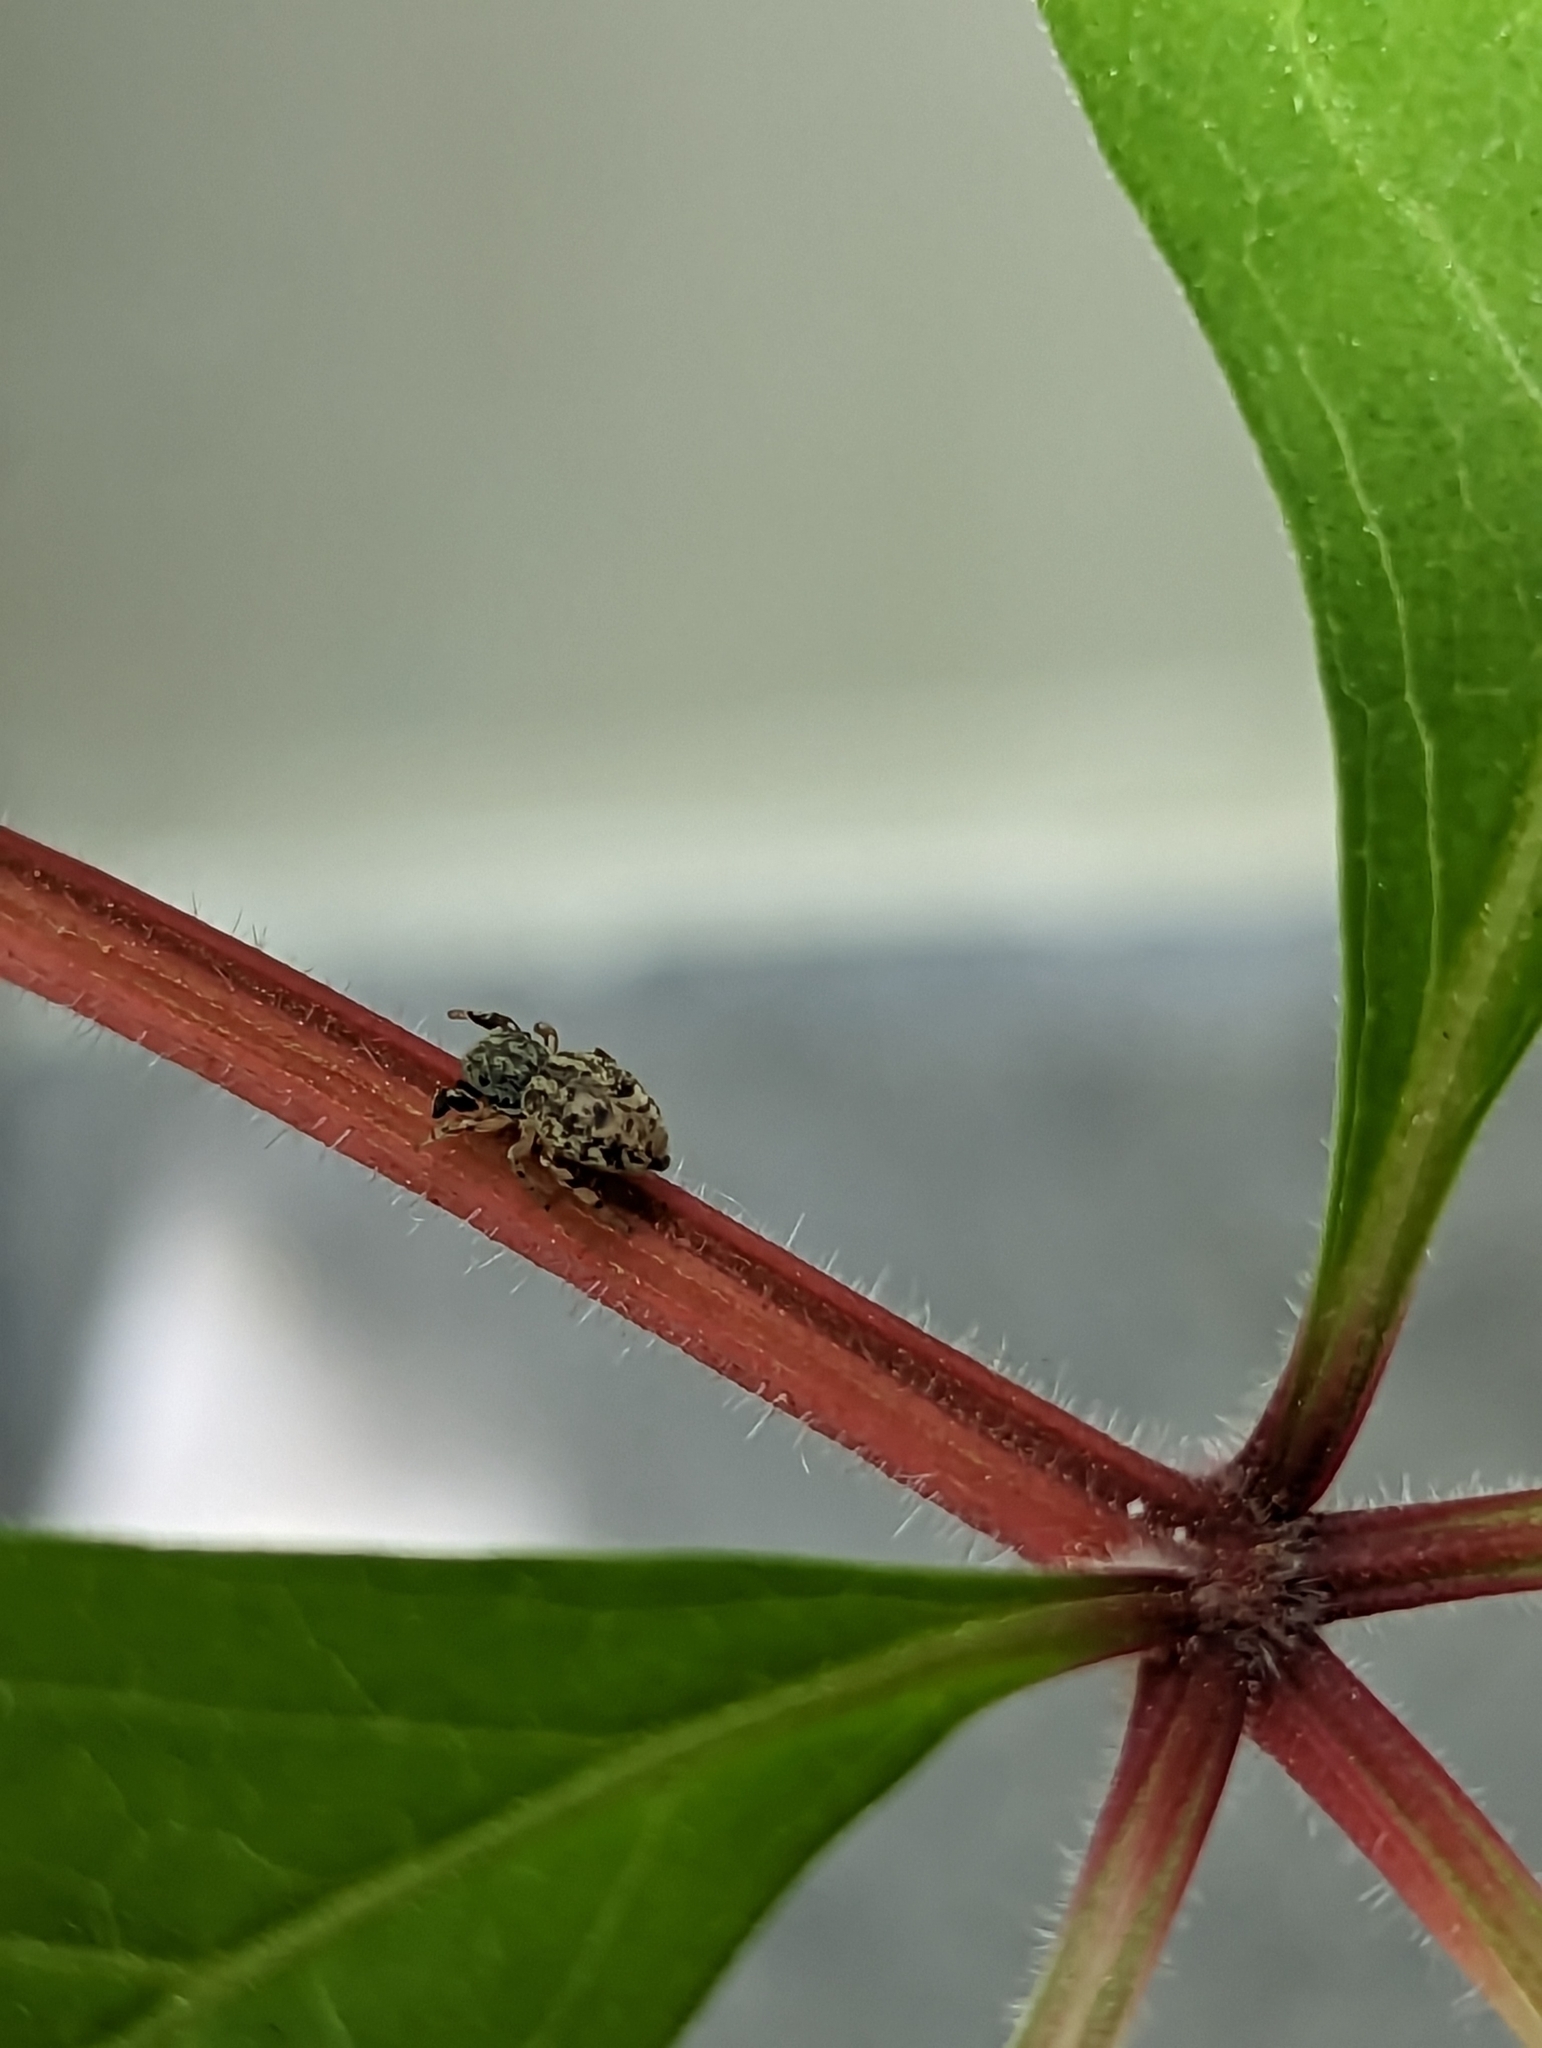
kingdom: Animalia
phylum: Arthropoda
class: Arachnida
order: Araneae
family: Salticidae
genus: Ballus
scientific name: Ballus chalybeius
